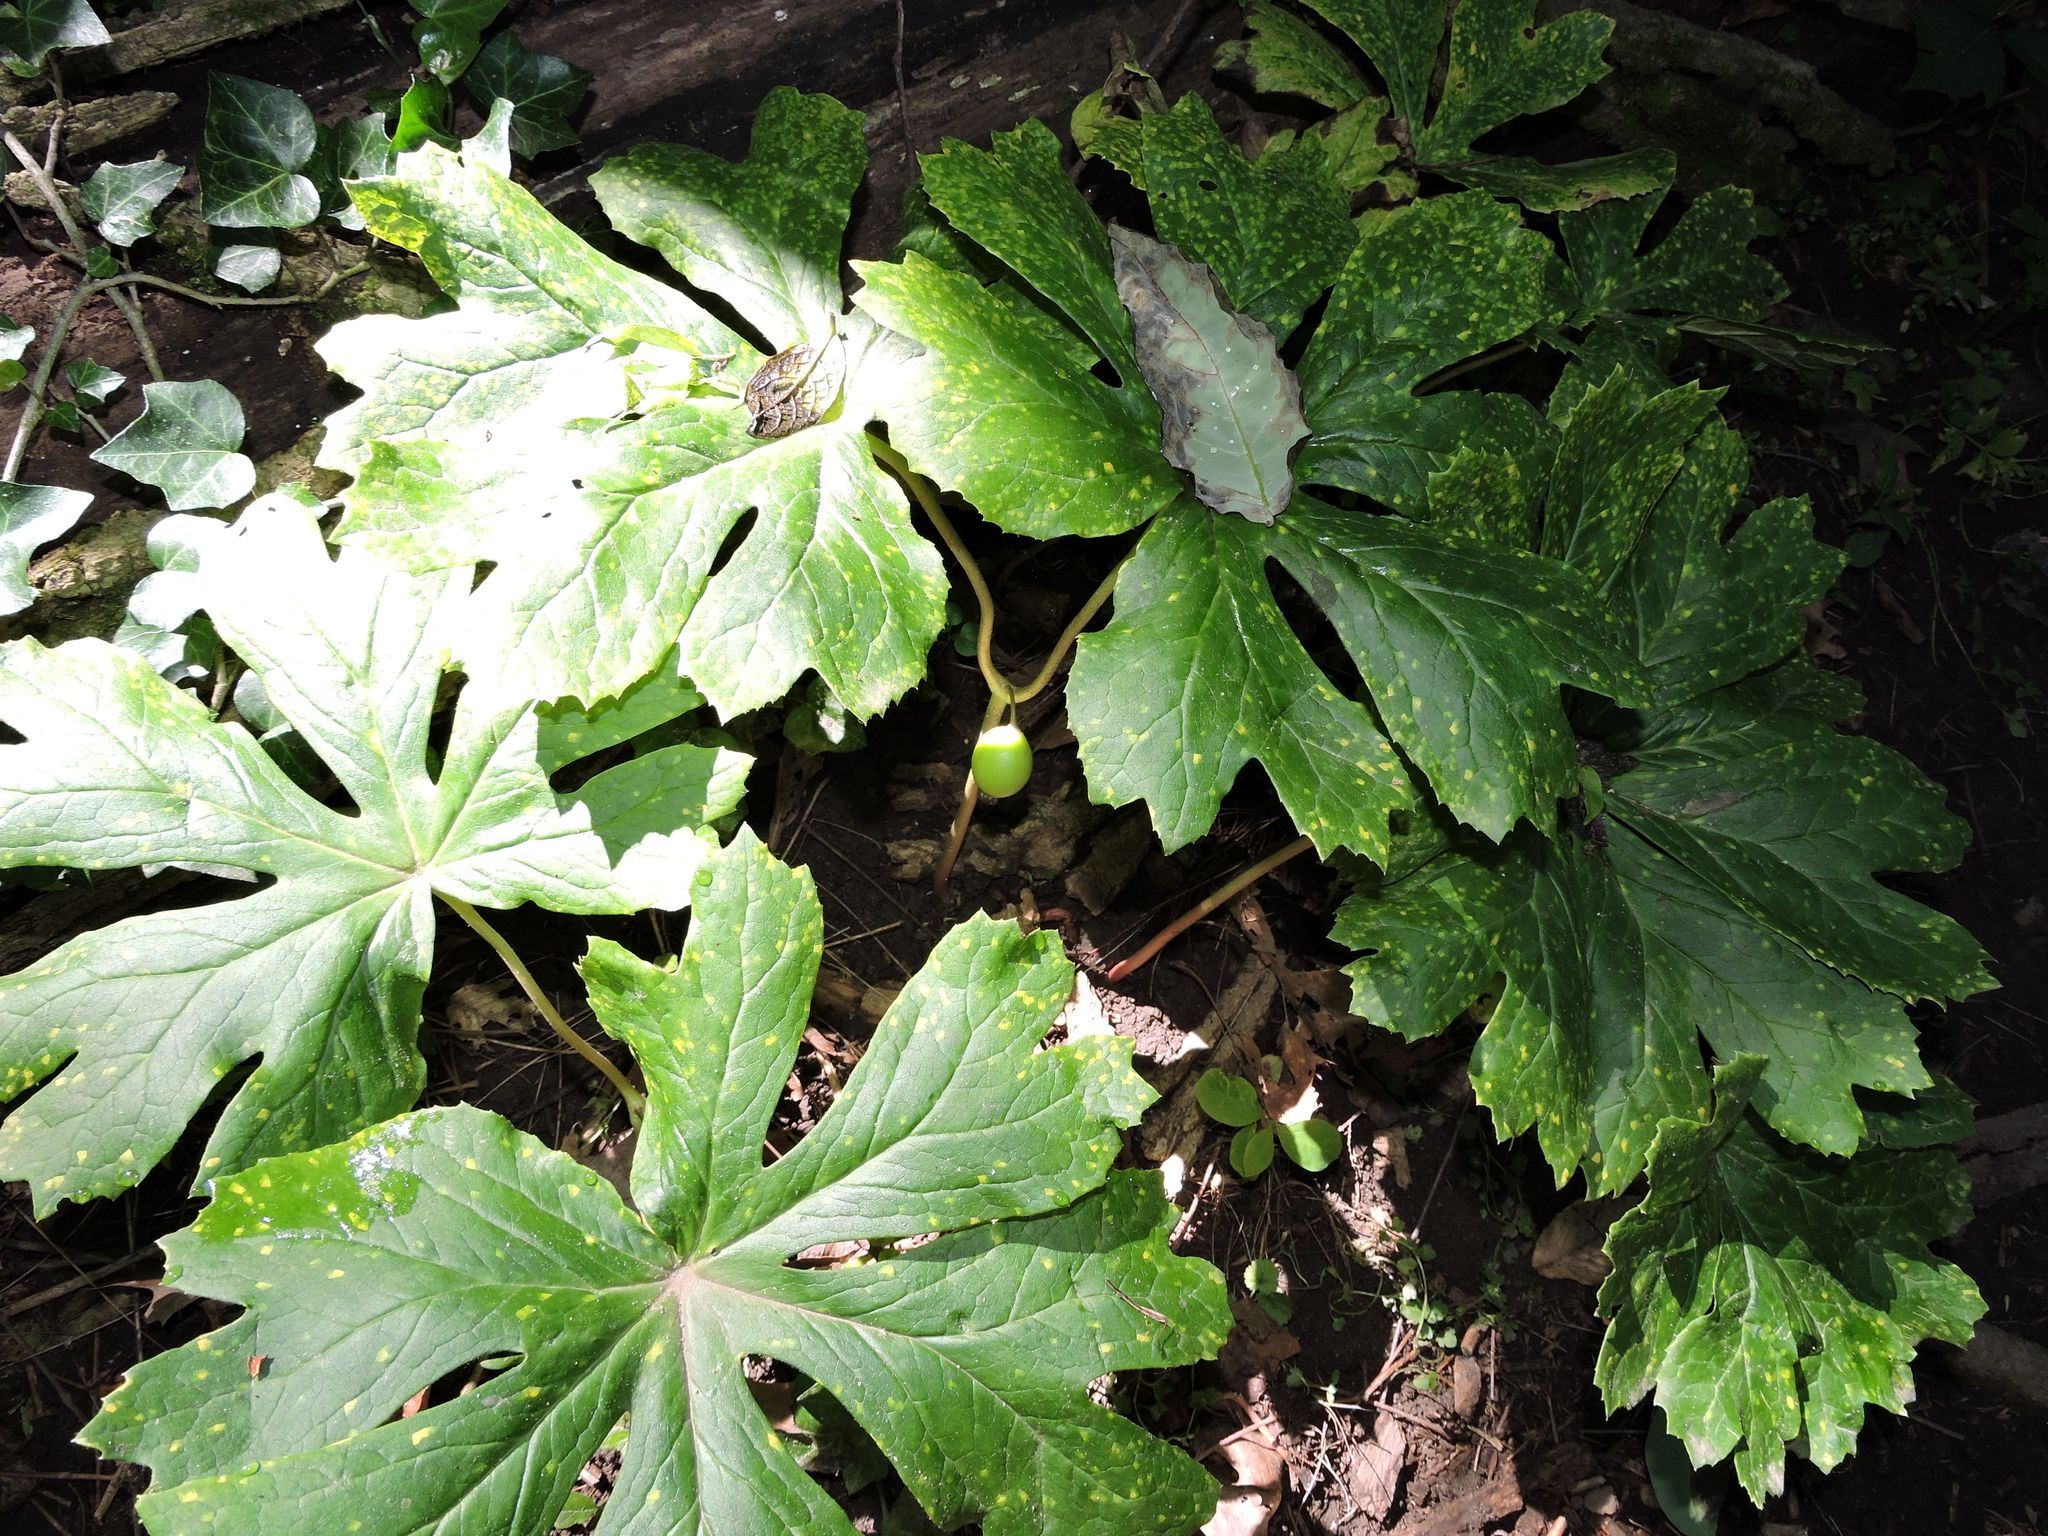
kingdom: Plantae
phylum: Tracheophyta
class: Magnoliopsida
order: Ranunculales
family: Berberidaceae
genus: Podophyllum
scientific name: Podophyllum peltatum
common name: Wild mandrake
